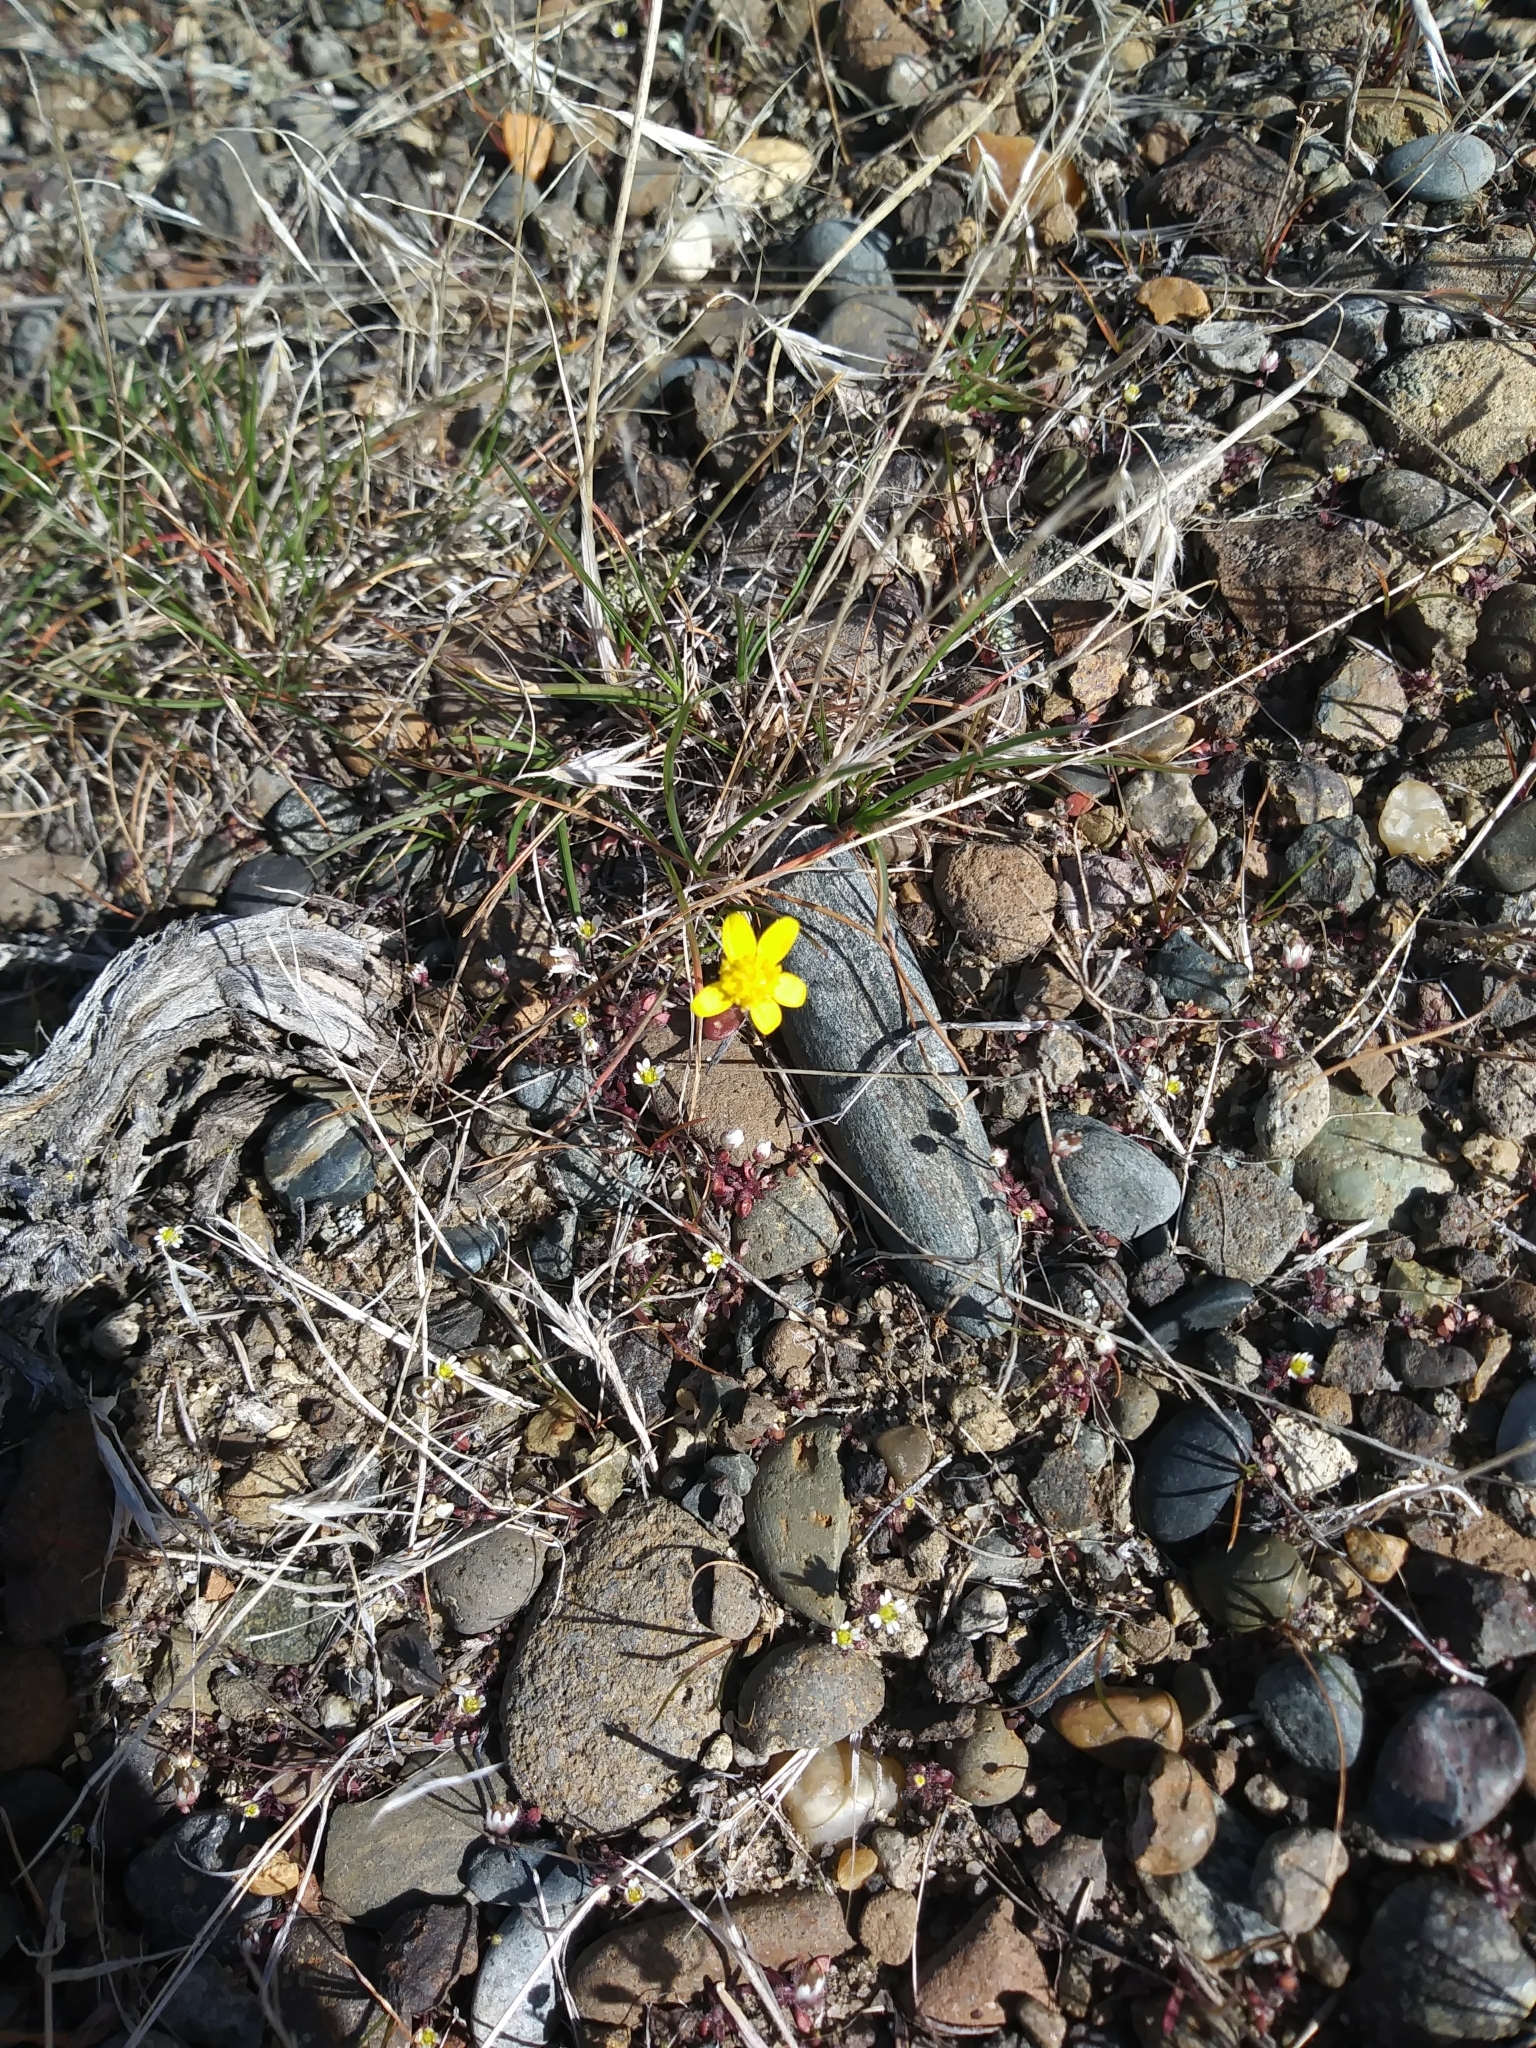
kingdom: Plantae
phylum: Tracheophyta
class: Magnoliopsida
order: Asterales
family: Asteraceae
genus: Crocidium
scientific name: Crocidium multicaule
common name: Common spring gold
